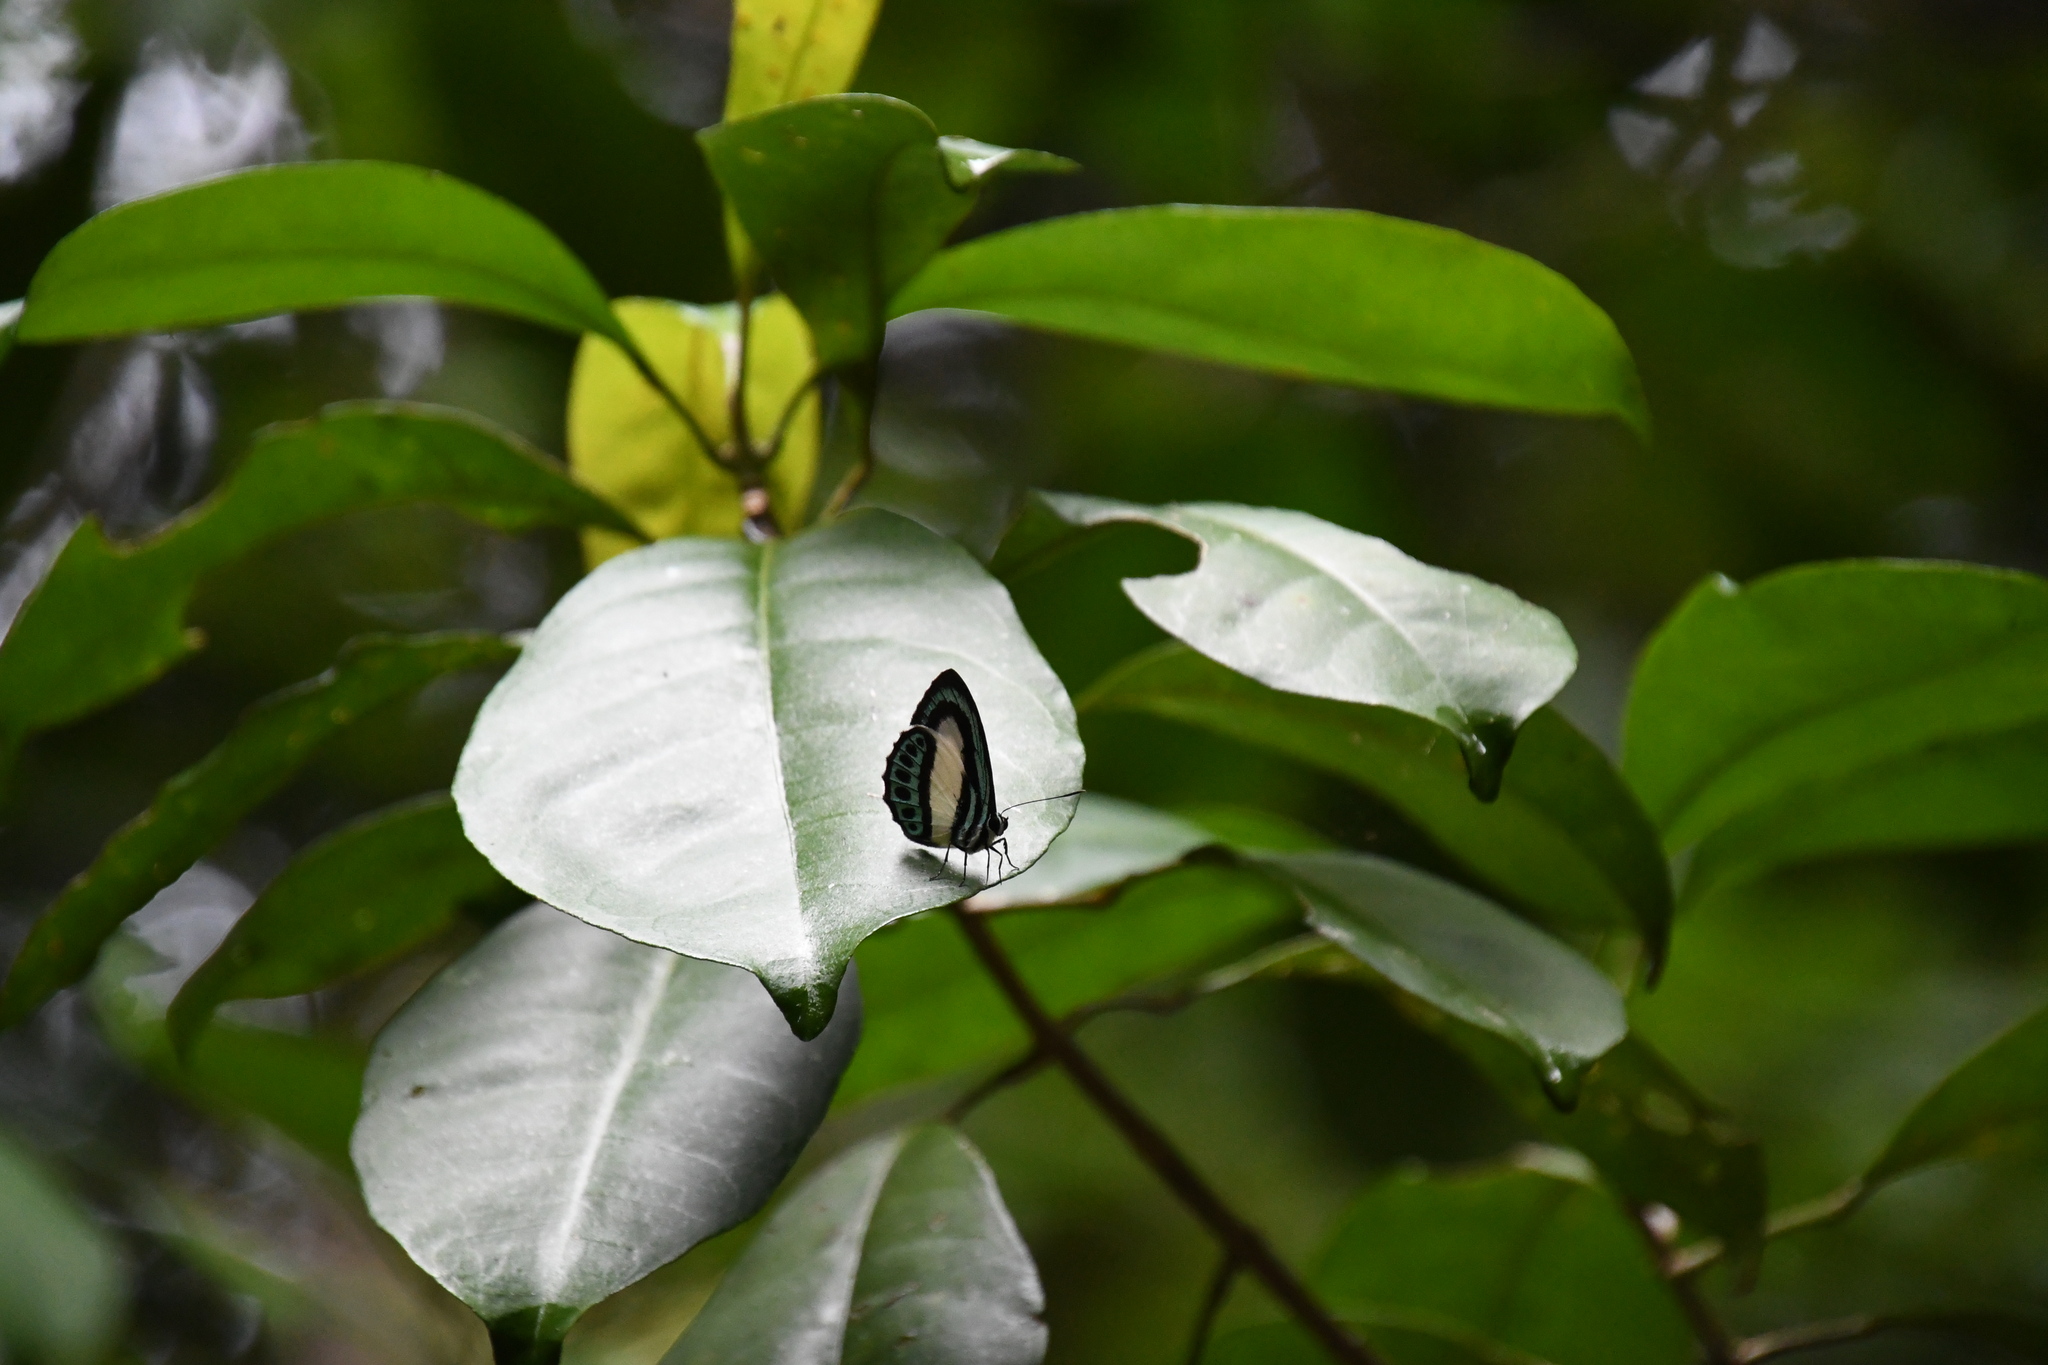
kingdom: Animalia
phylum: Arthropoda
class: Insecta
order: Lepidoptera
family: Lycaenidae
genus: Danis
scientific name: Danis danis
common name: Large green-banded blue
